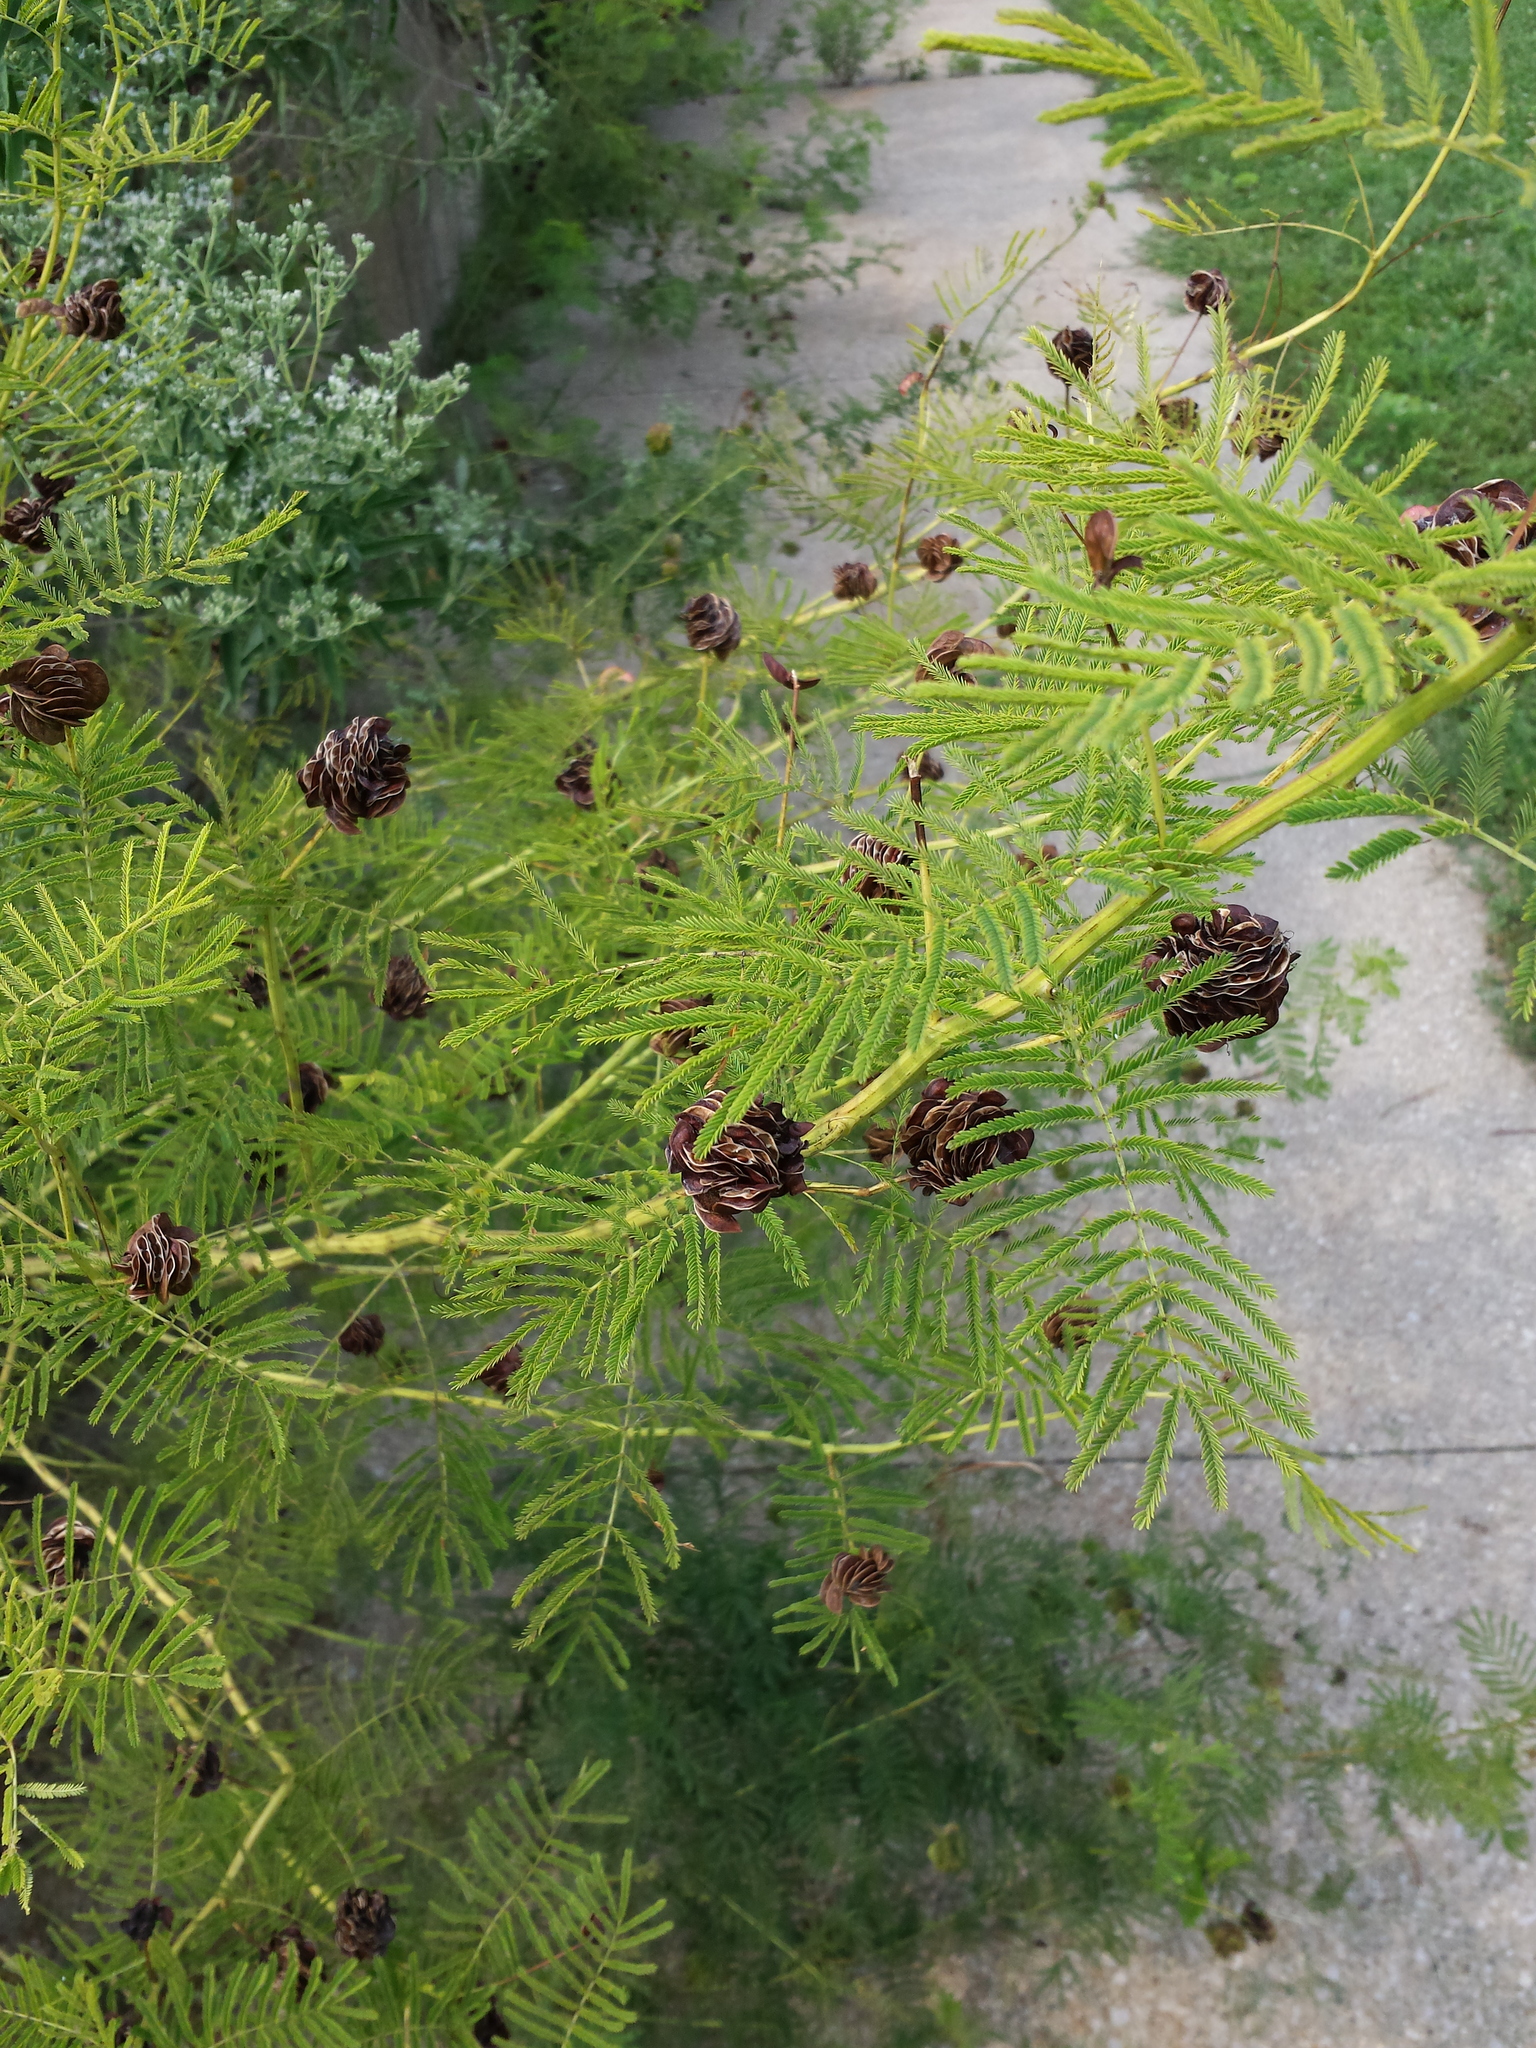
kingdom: Plantae
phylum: Tracheophyta
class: Magnoliopsida
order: Fabales
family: Fabaceae
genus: Desmanthus
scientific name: Desmanthus illinoensis
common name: Illinois bundle-flower
